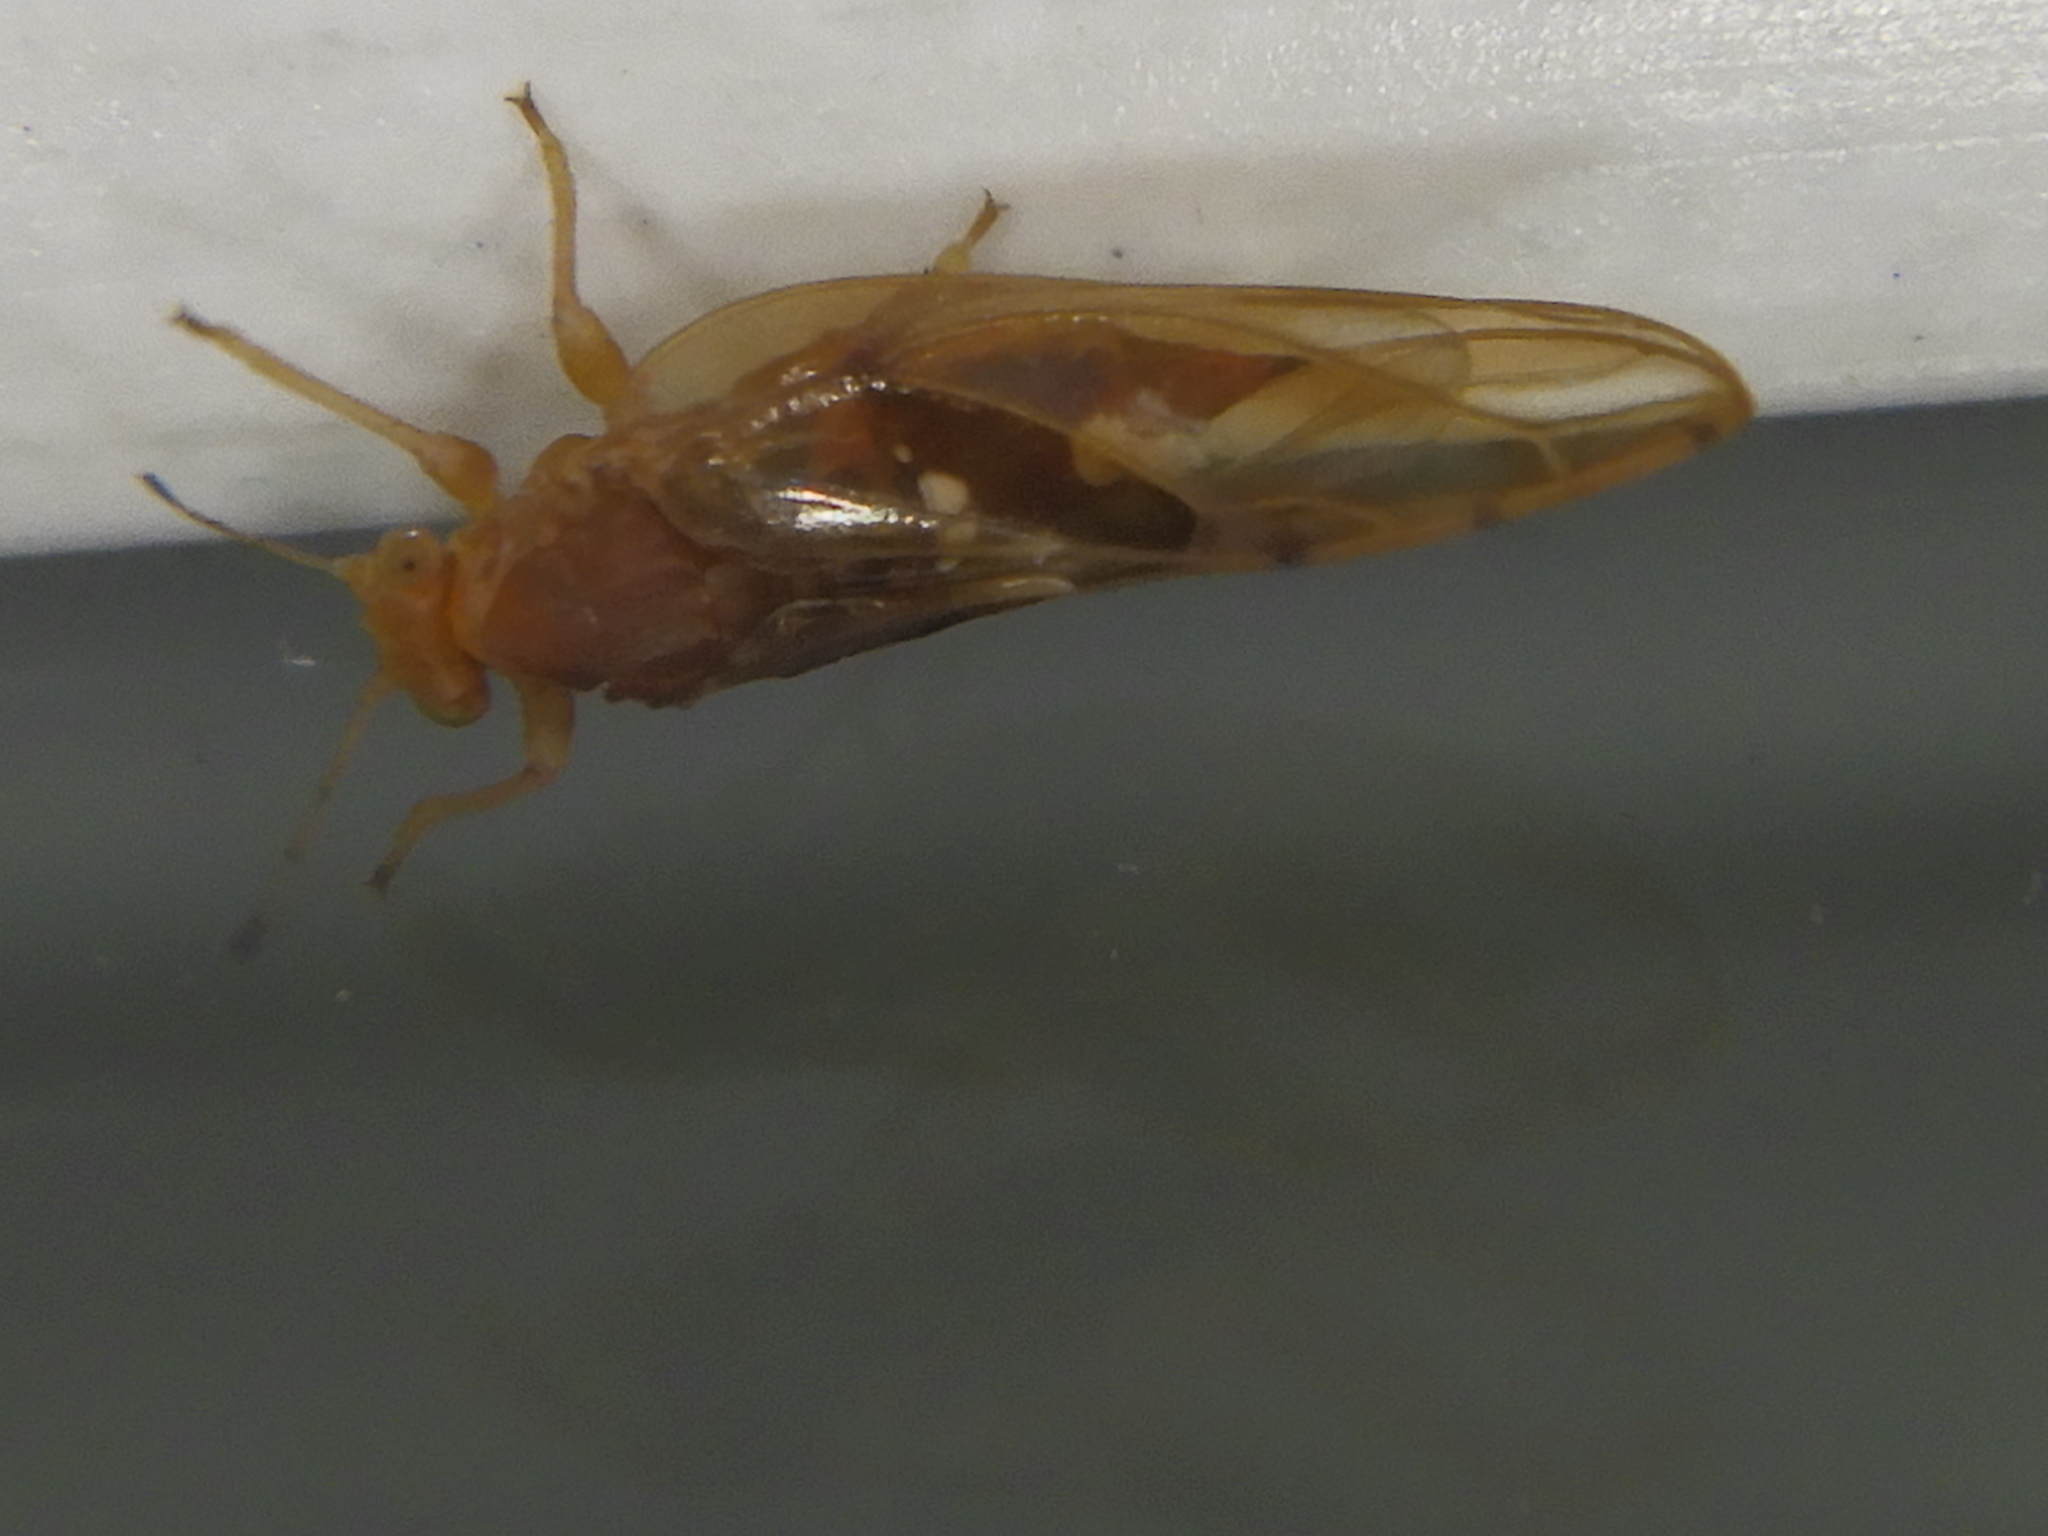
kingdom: Animalia
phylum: Arthropoda
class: Insecta
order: Hemiptera
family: Triozidae
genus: Phylloplecta
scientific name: Phylloplecta tripunctata
